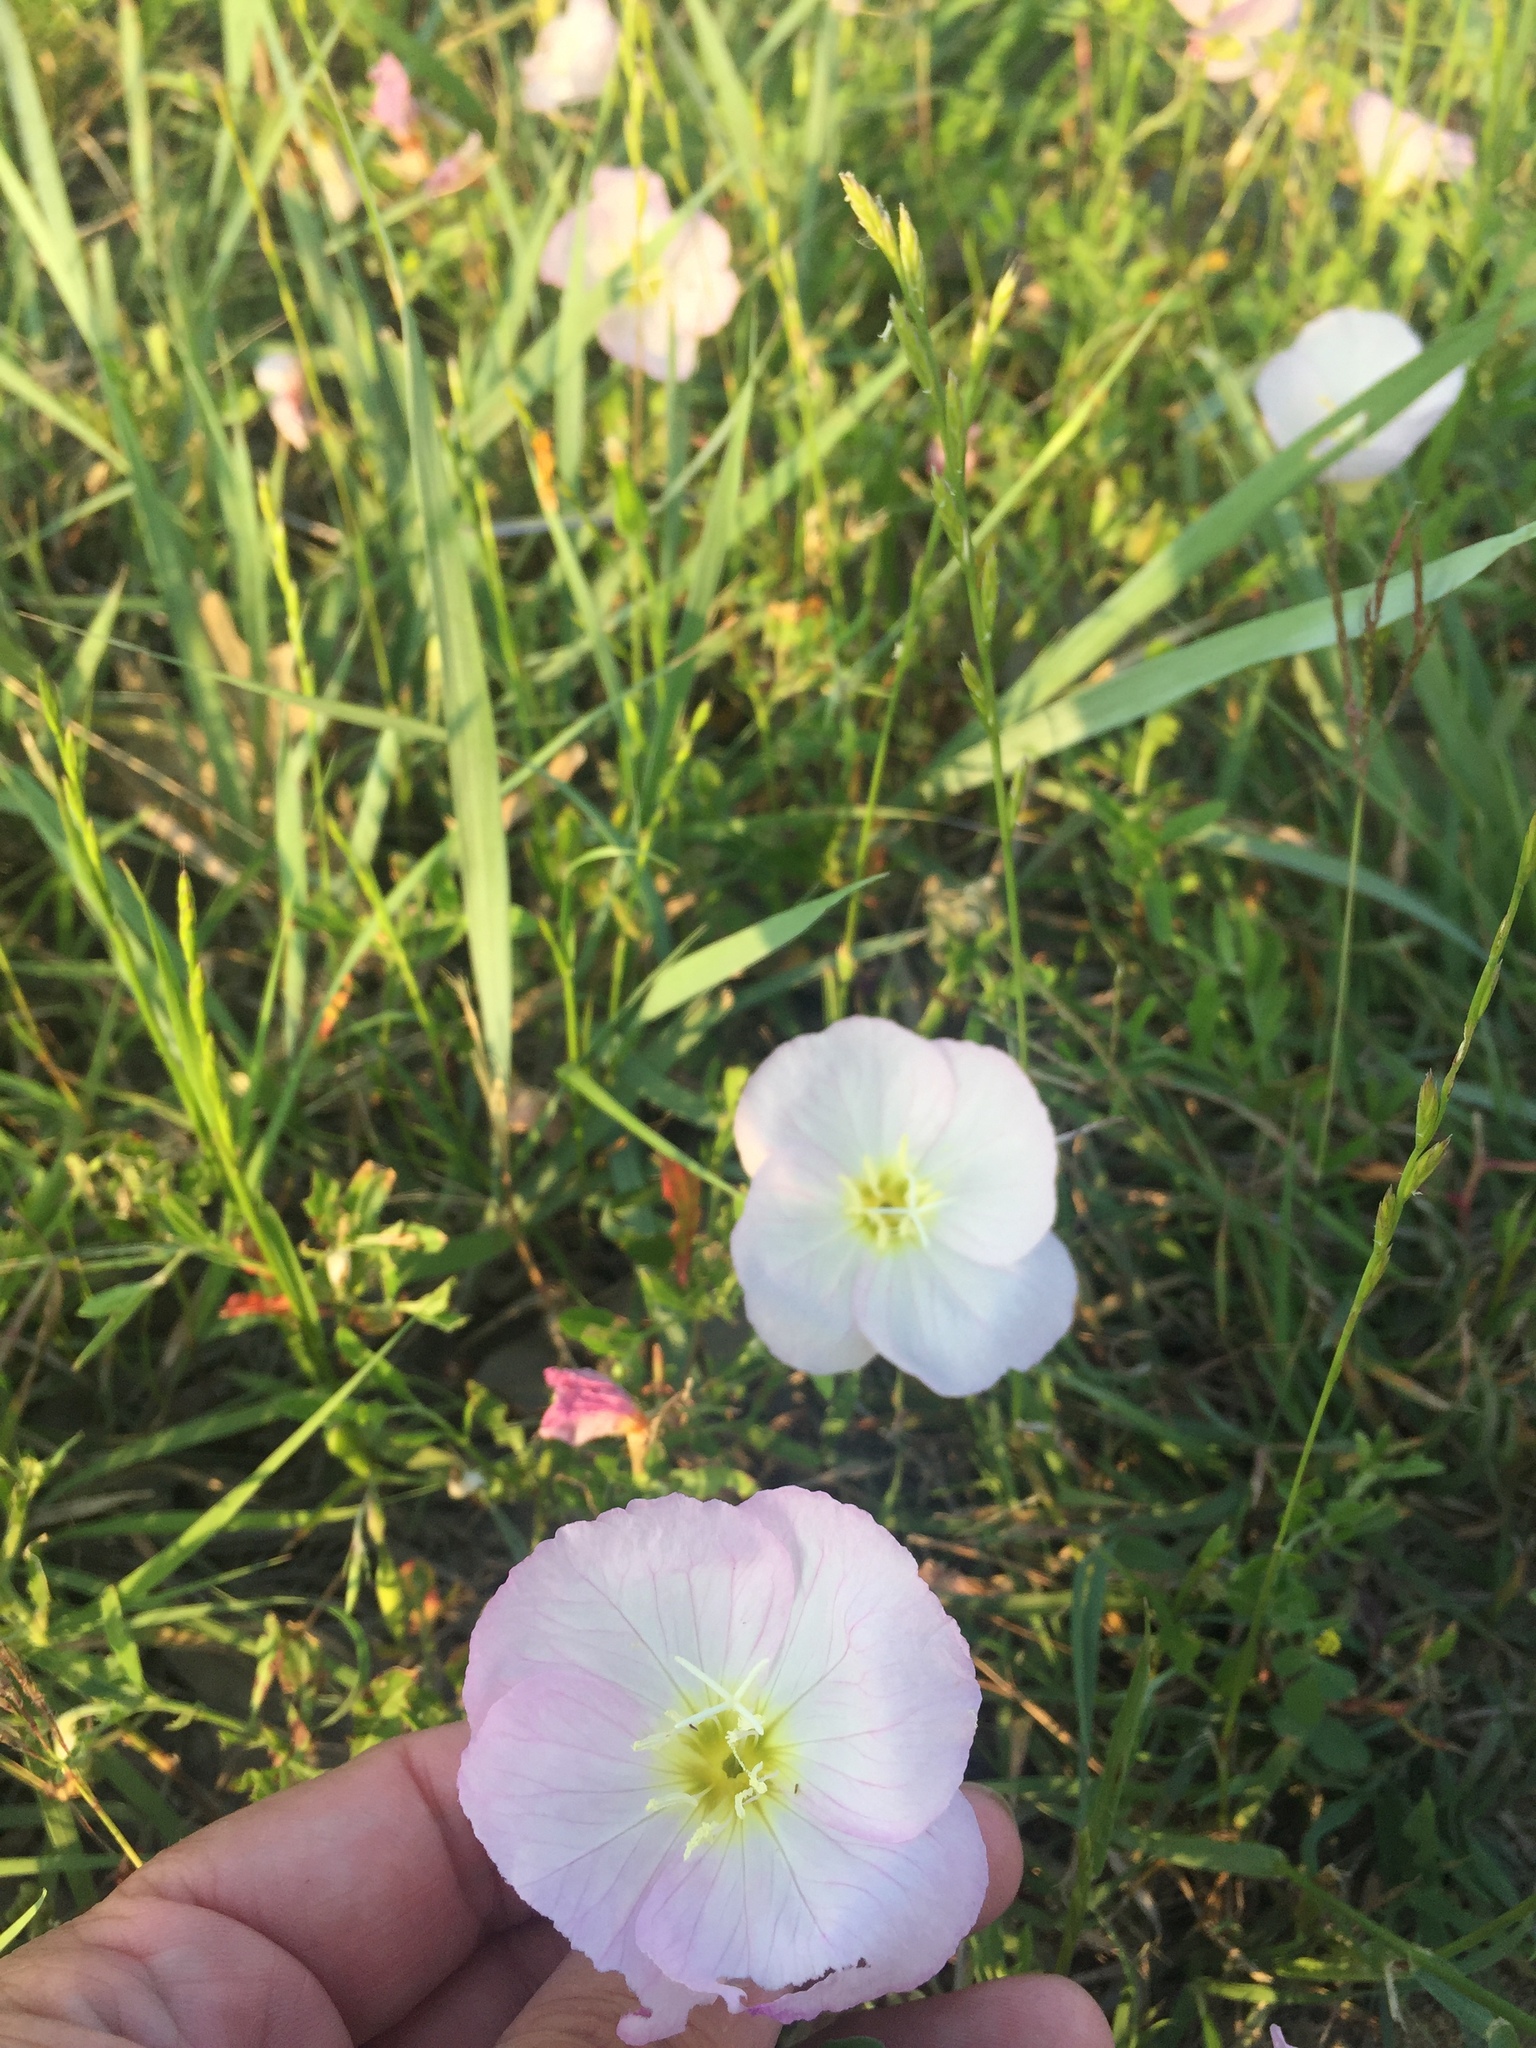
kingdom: Plantae
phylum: Tracheophyta
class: Magnoliopsida
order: Myrtales
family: Onagraceae
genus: Oenothera
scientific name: Oenothera speciosa
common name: White evening-primrose
